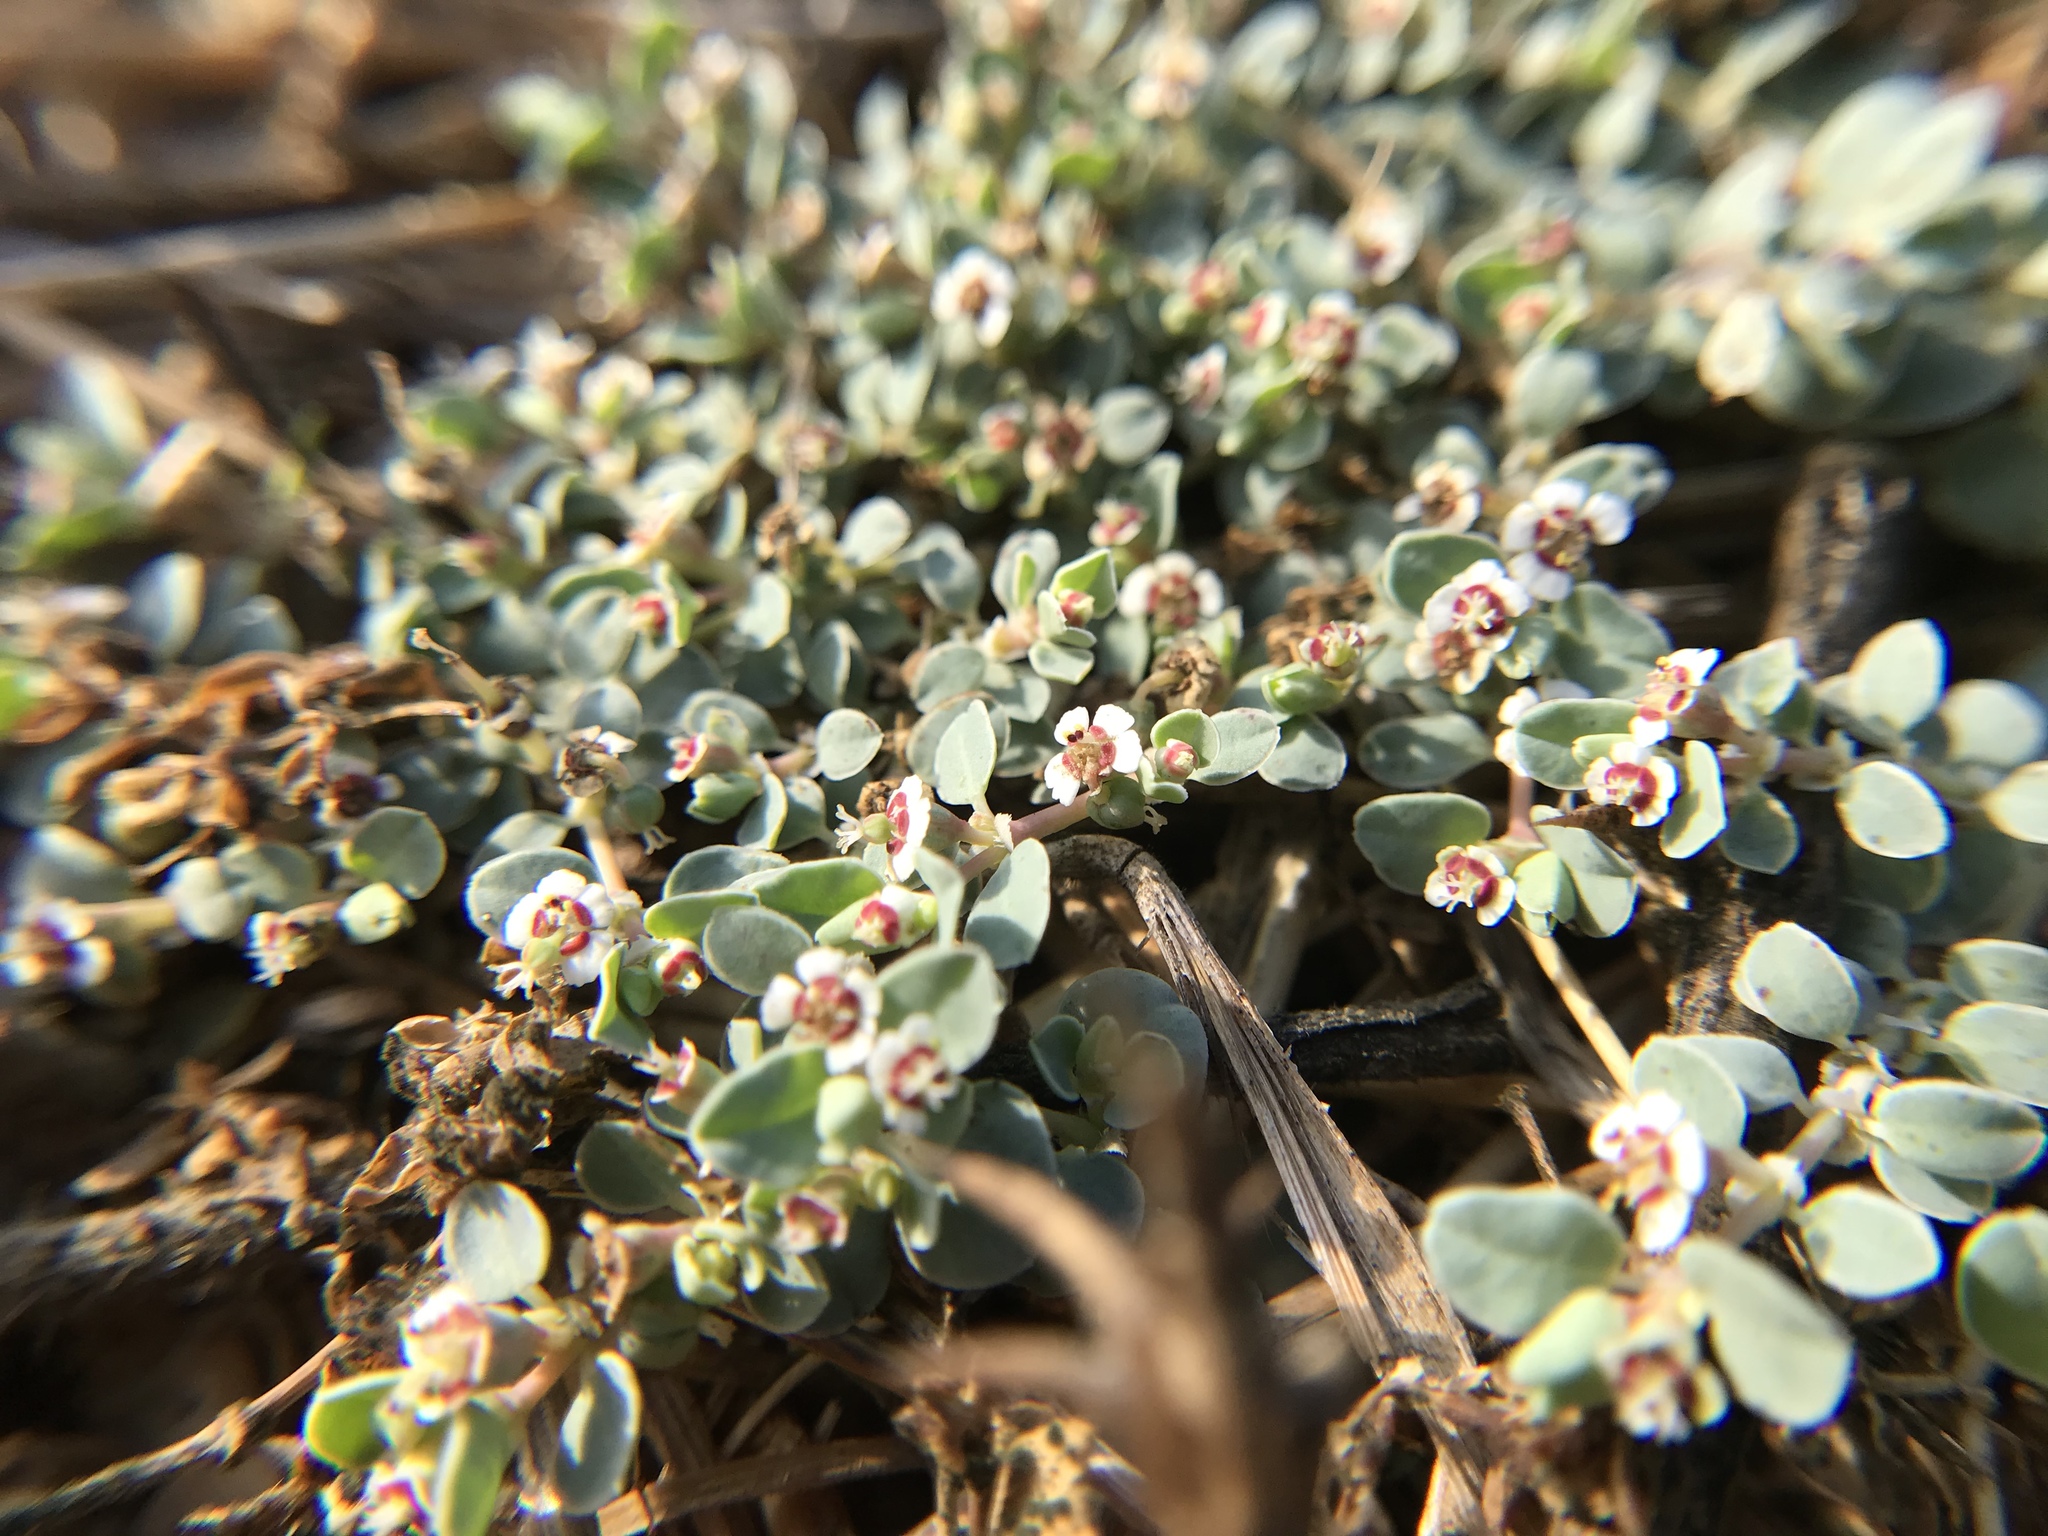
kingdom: Plantae
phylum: Tracheophyta
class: Magnoliopsida
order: Malpighiales
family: Euphorbiaceae
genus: Euphorbia
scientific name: Euphorbia albomarginata
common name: Whitemargin sandmat
